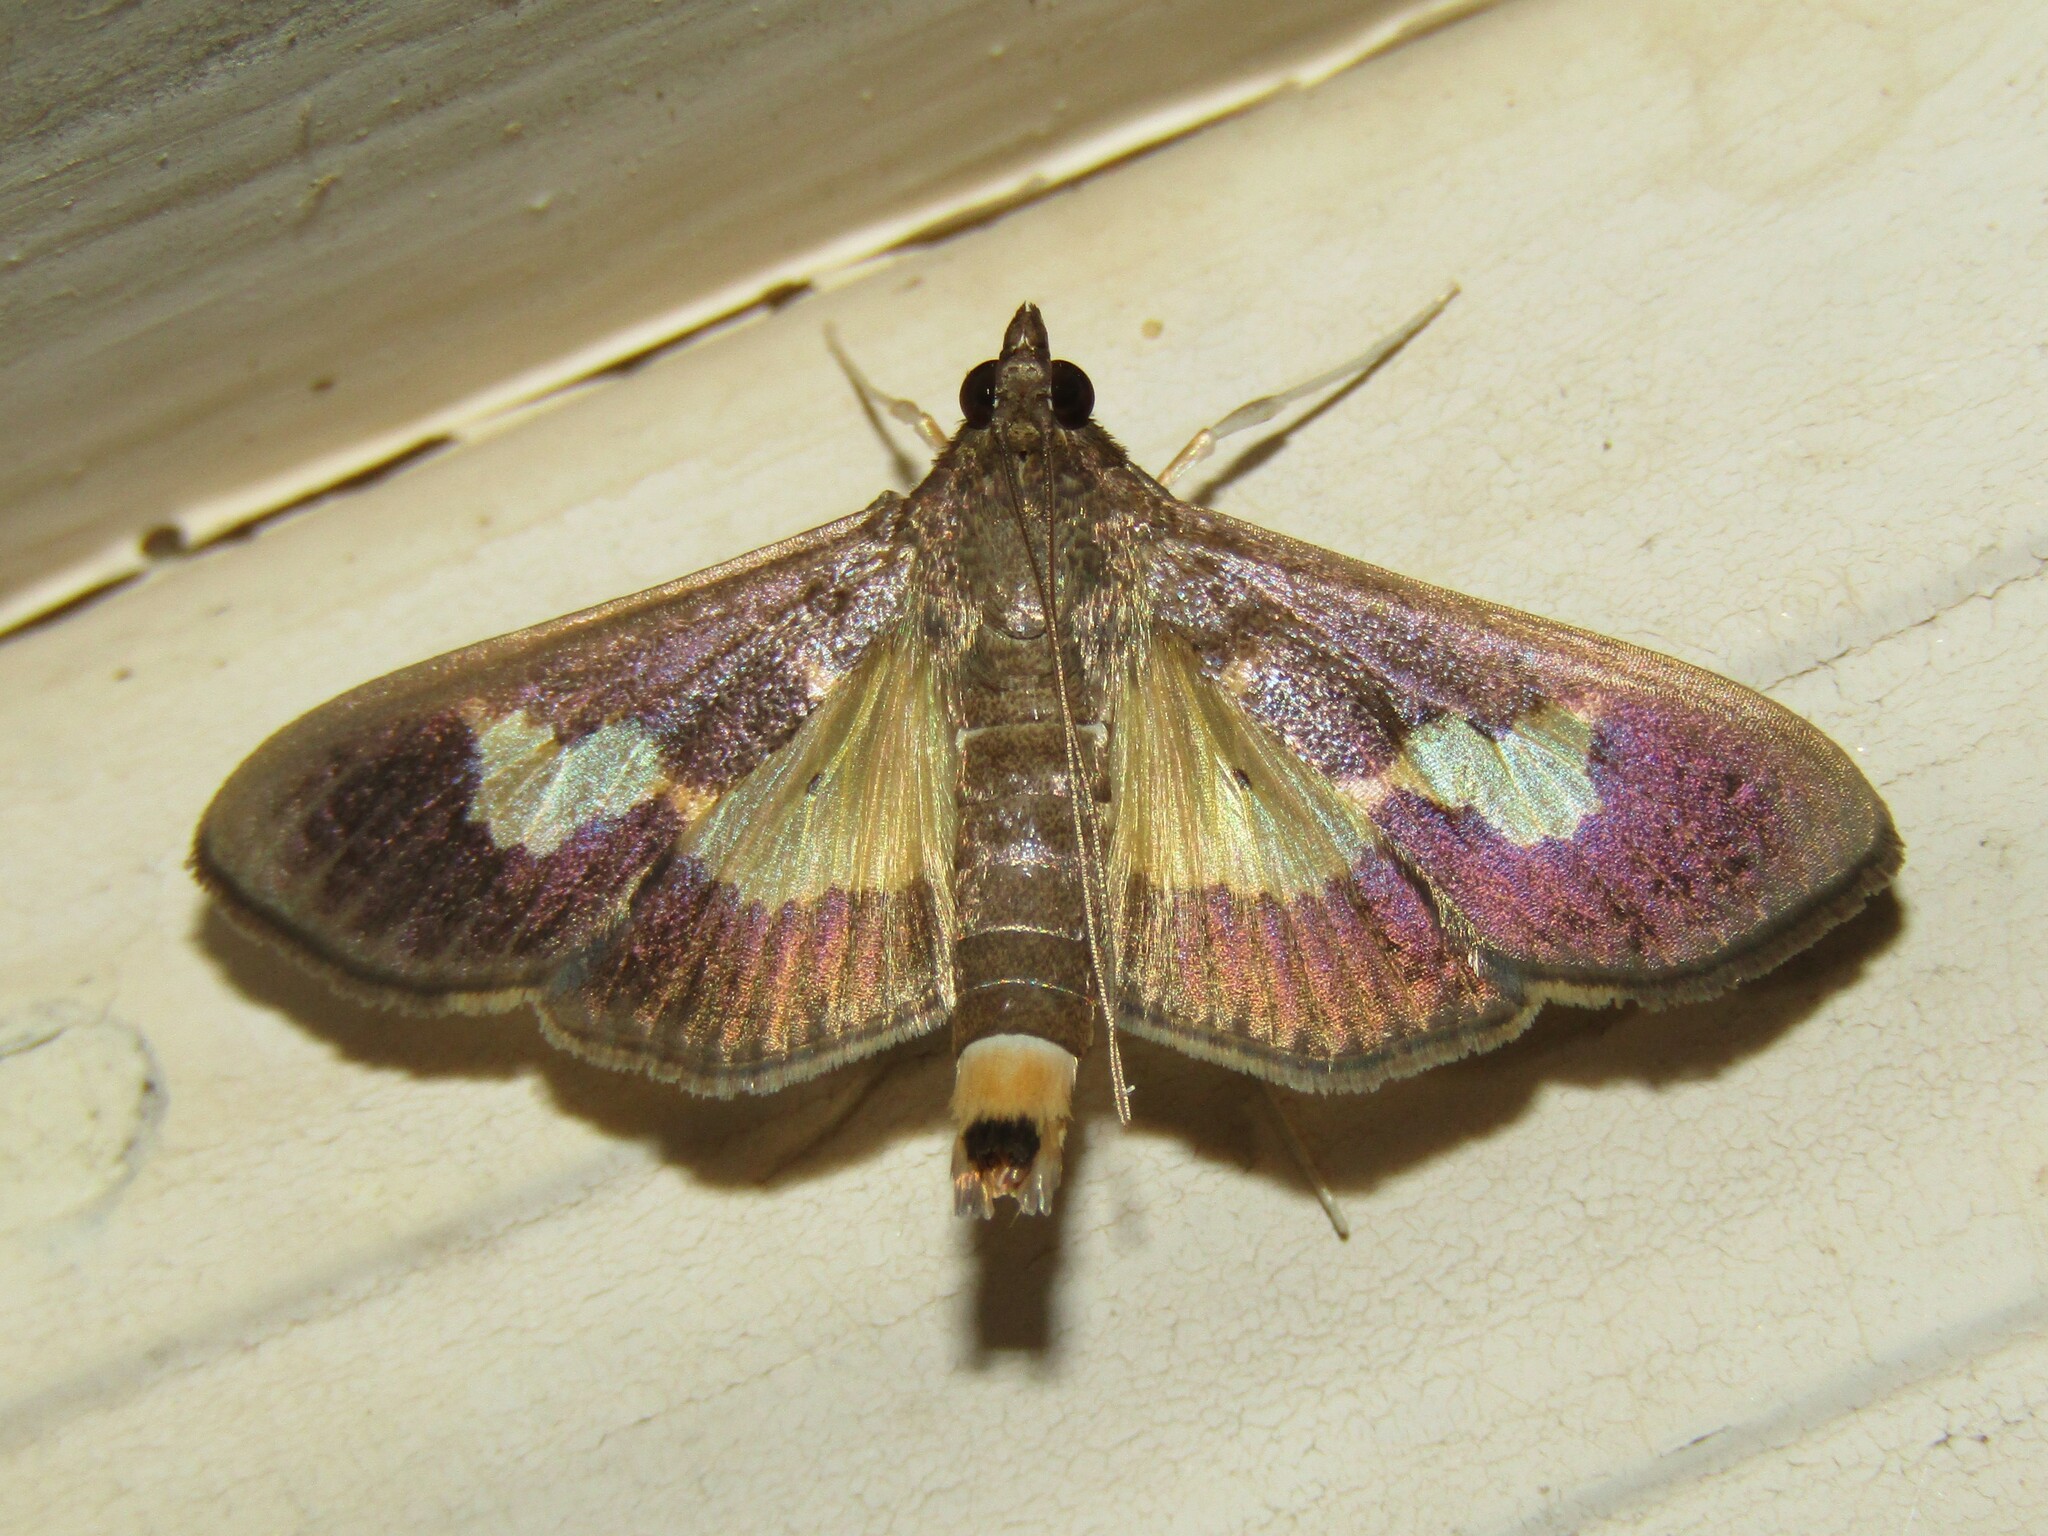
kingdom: Animalia
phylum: Arthropoda
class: Insecta
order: Lepidoptera
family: Crambidae
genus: Cryptographis
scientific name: Cryptographis nitidalis
